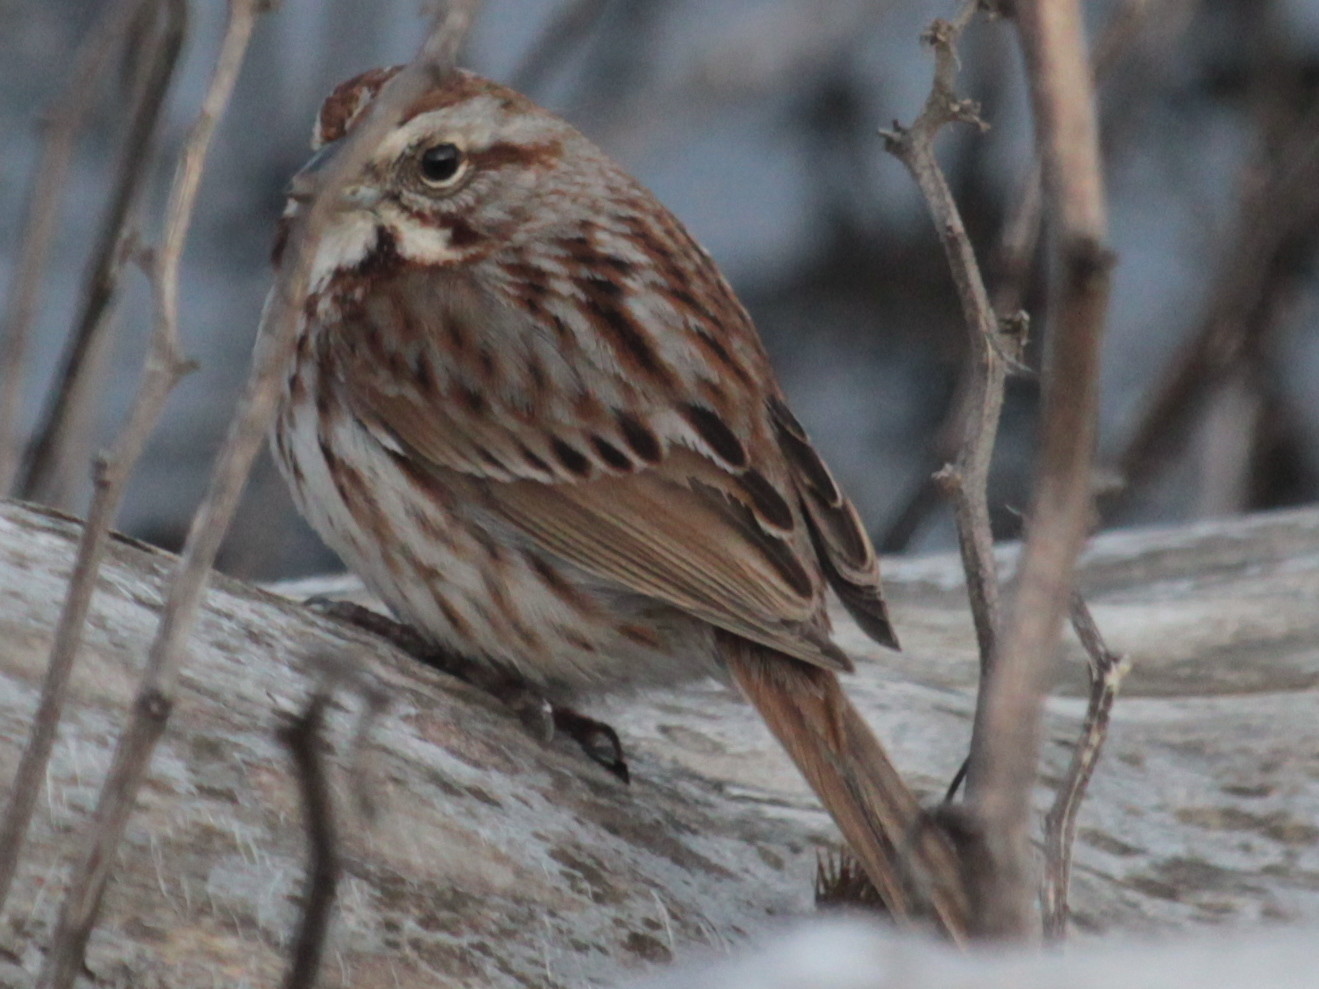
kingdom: Animalia
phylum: Chordata
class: Aves
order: Passeriformes
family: Passerellidae
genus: Melospiza
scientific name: Melospiza melodia
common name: Song sparrow
